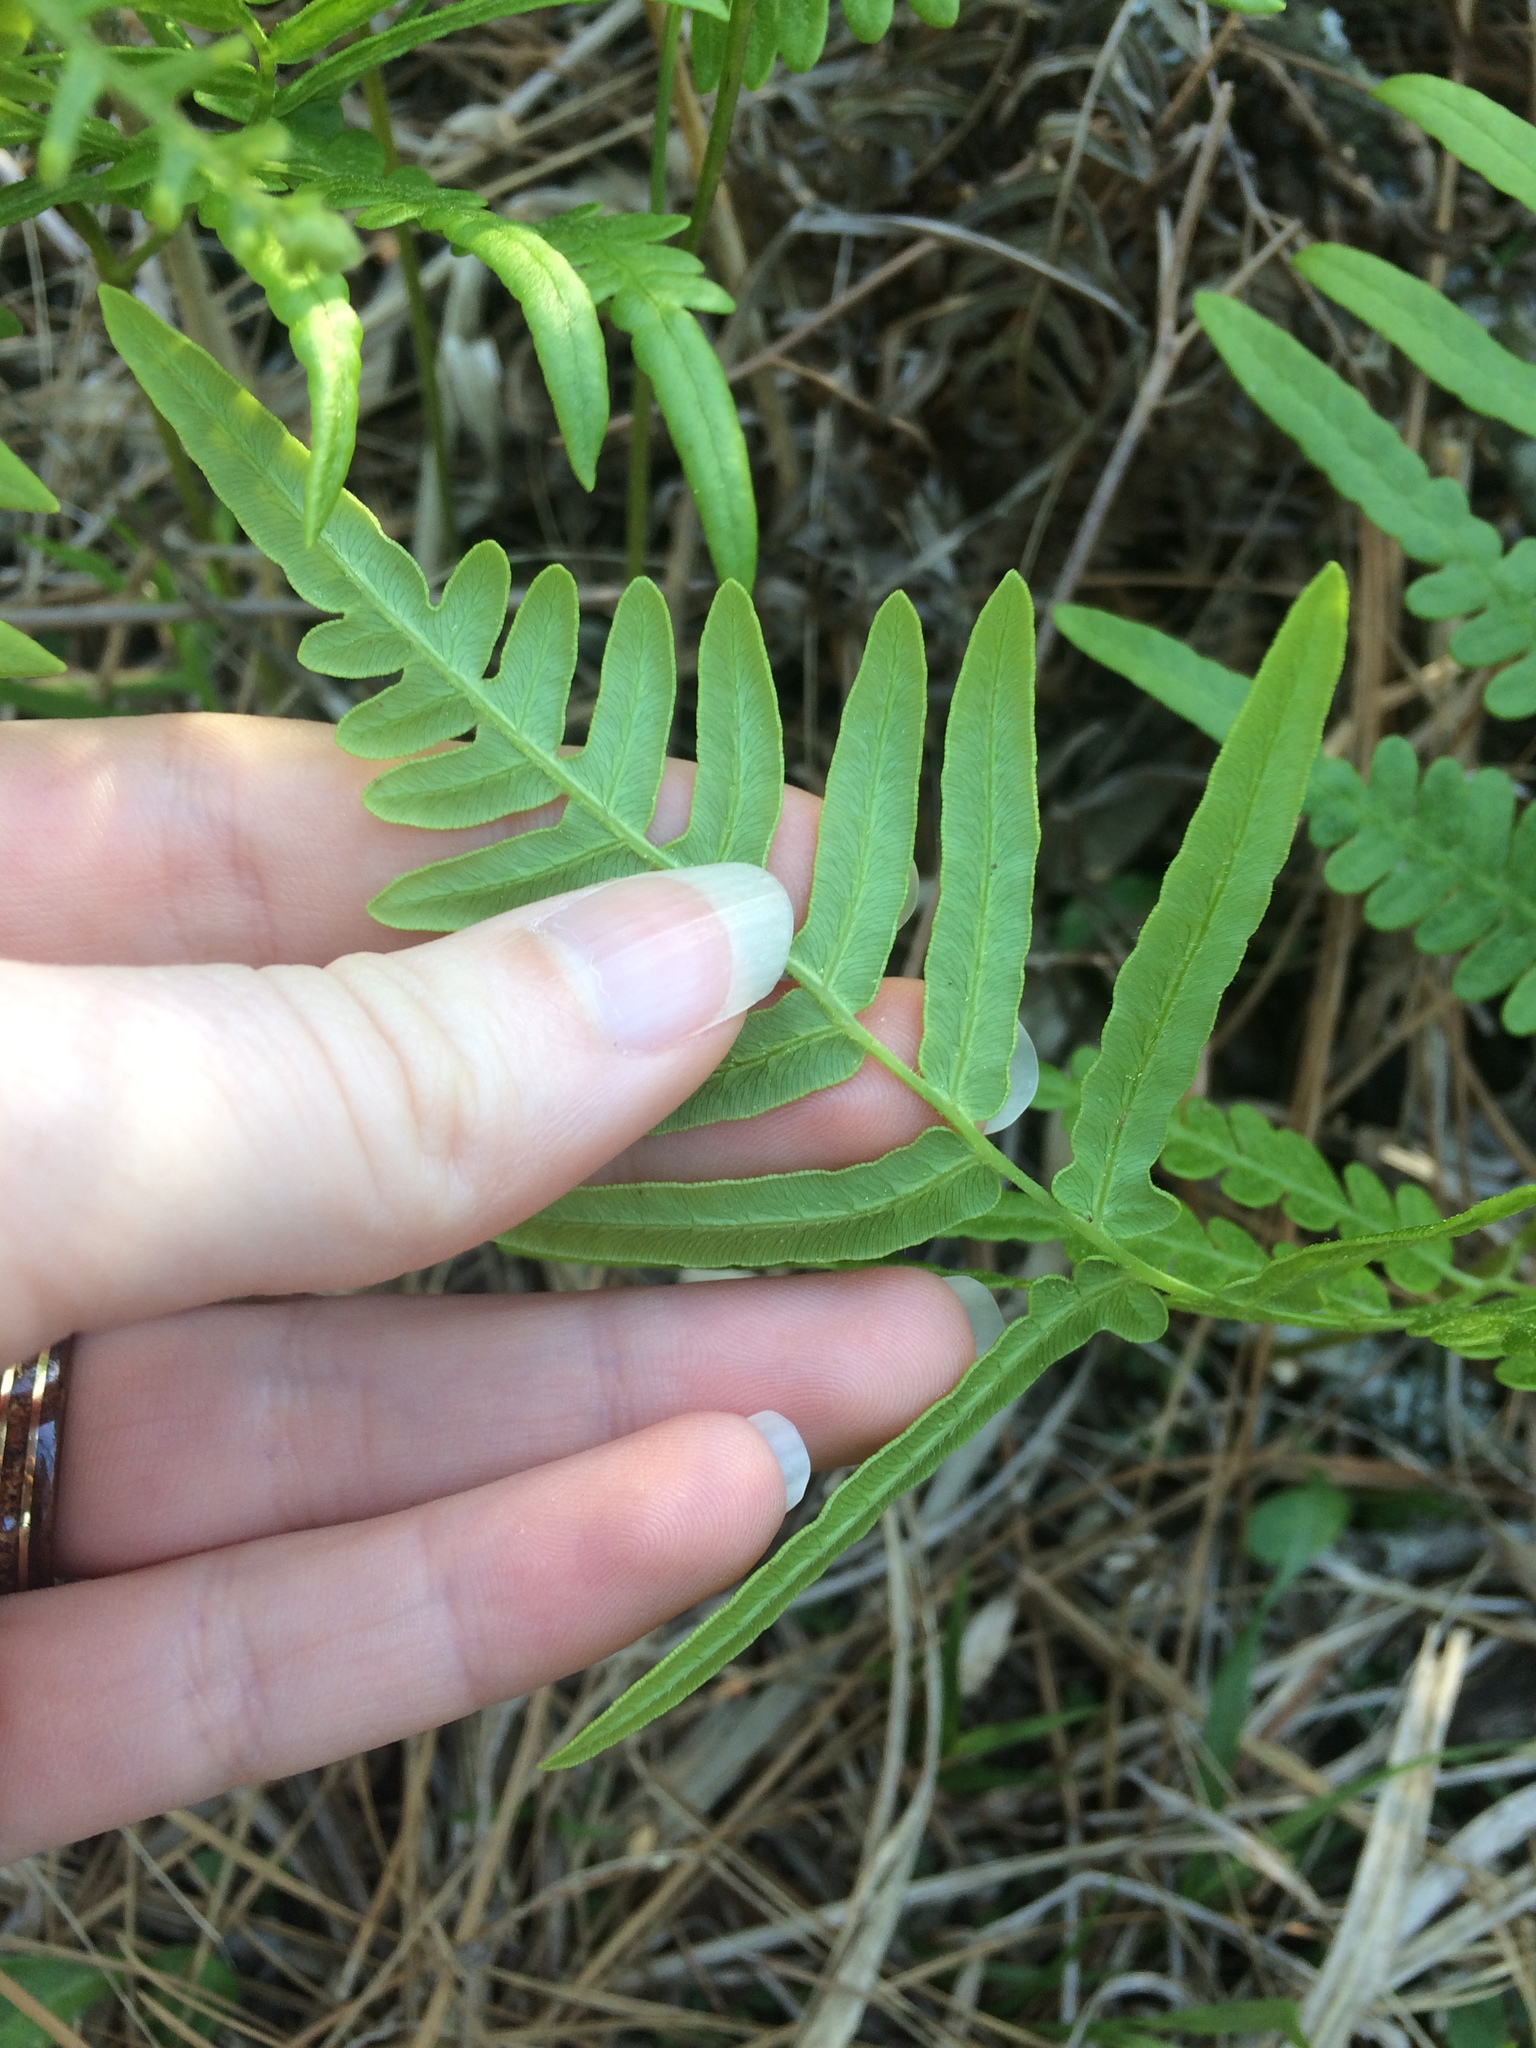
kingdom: Plantae
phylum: Tracheophyta
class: Polypodiopsida
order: Polypodiales
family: Dennstaedtiaceae
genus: Pteridium
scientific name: Pteridium
